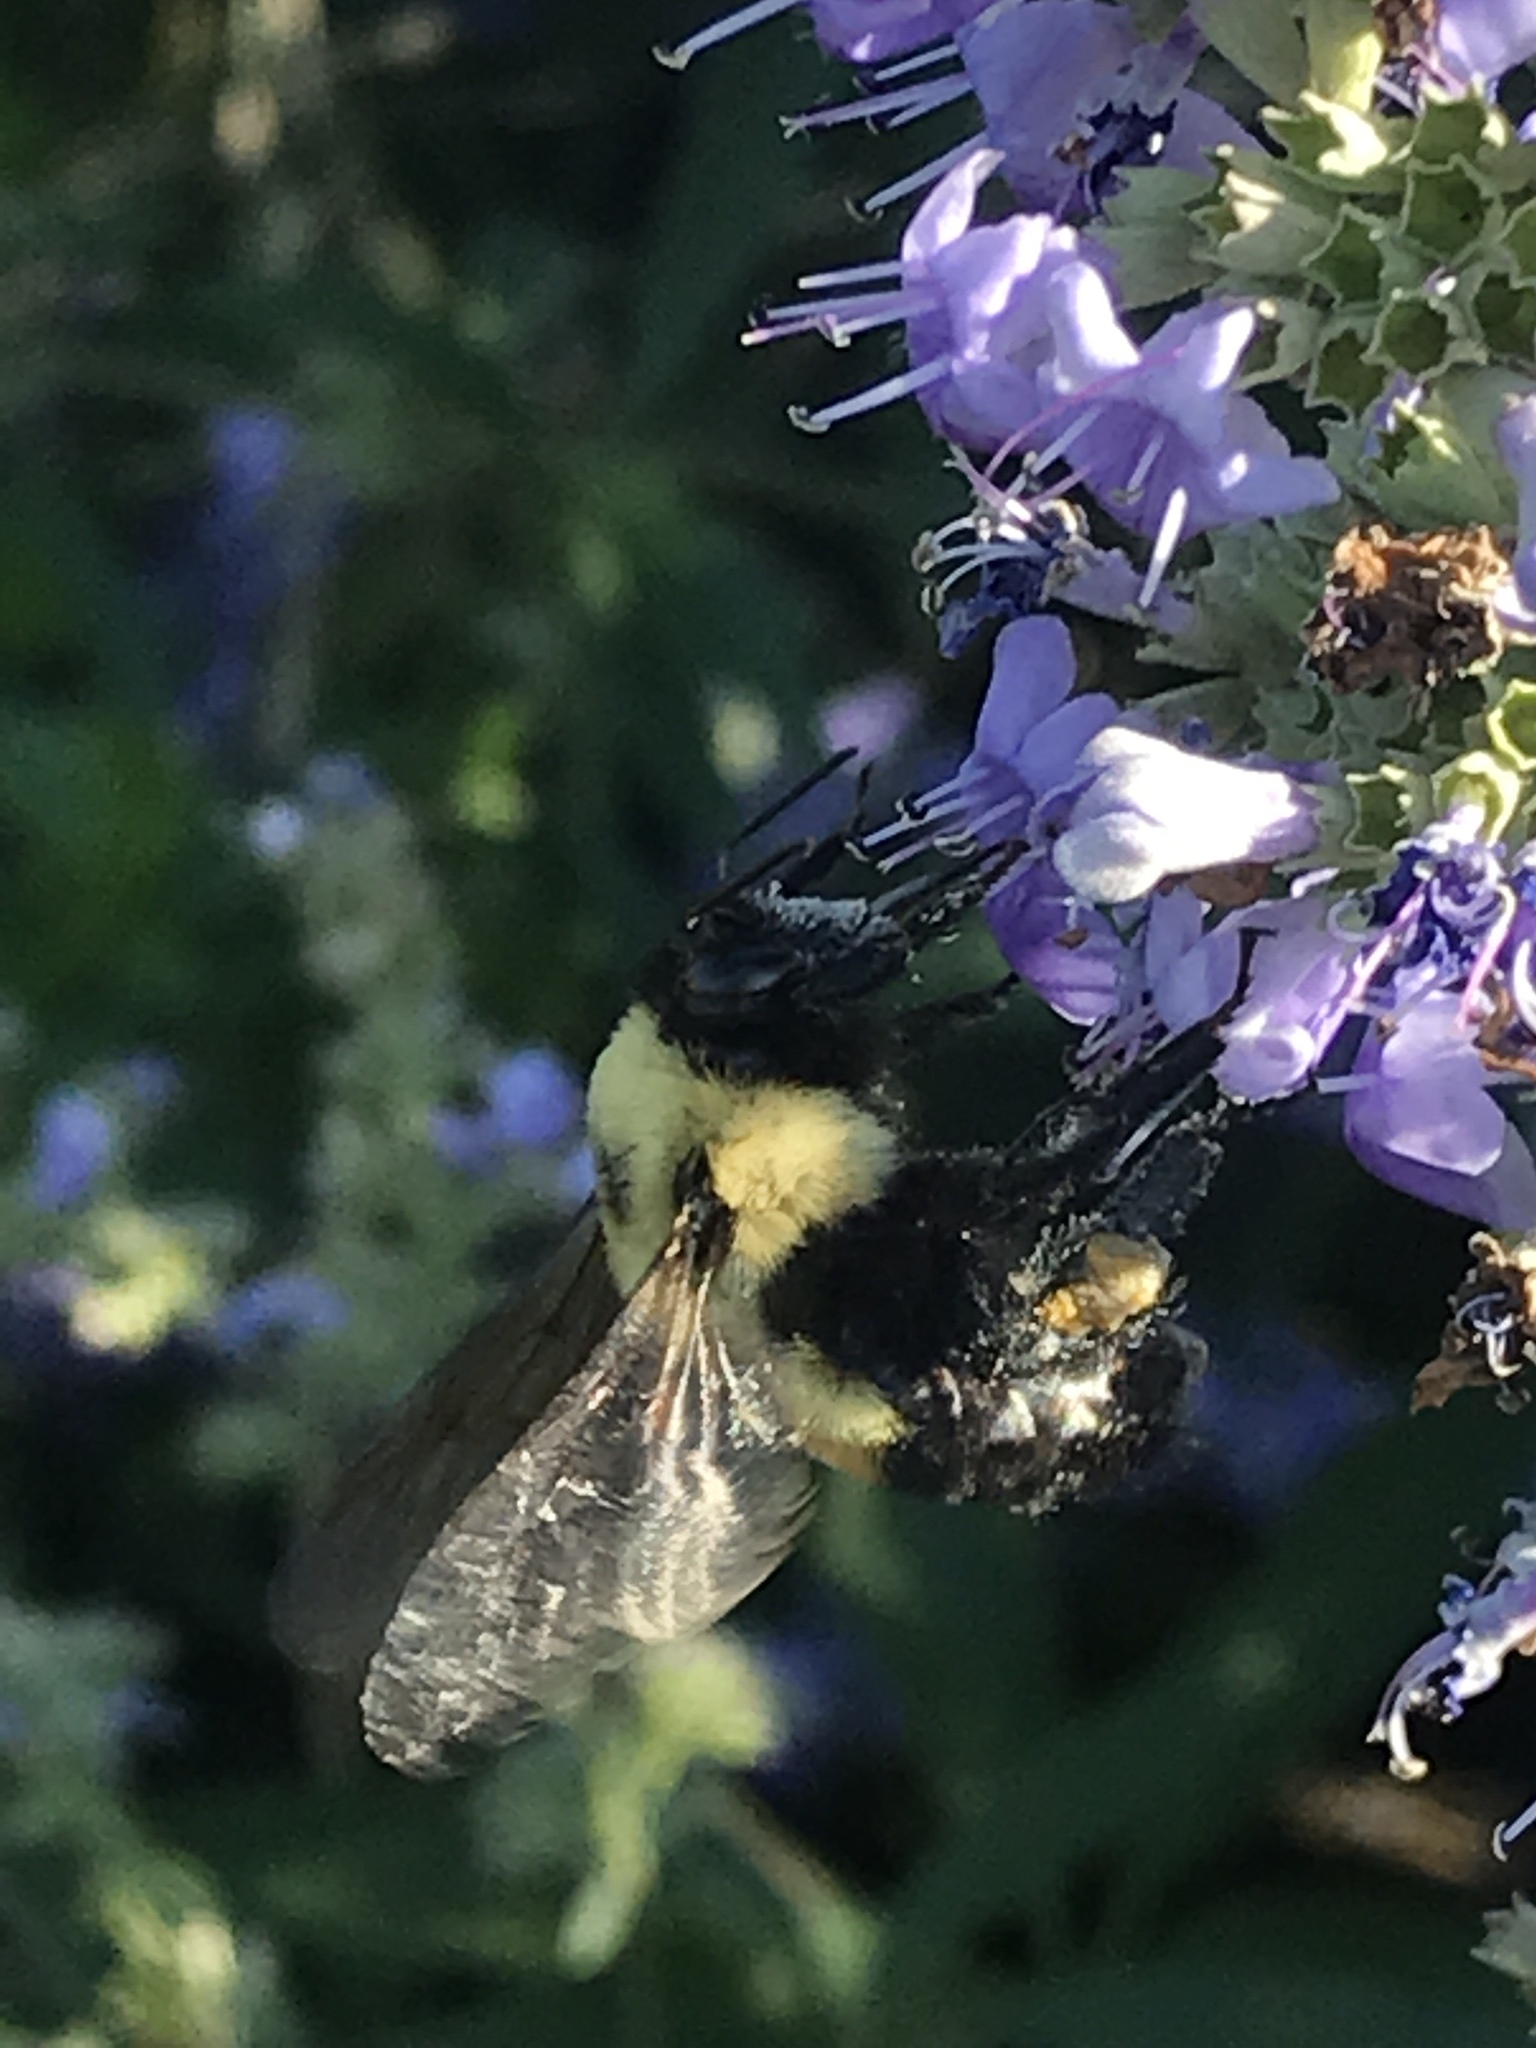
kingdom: Animalia
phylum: Arthropoda
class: Insecta
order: Hymenoptera
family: Apidae
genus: Bombus
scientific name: Bombus griseocollis
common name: Brown-belted bumble bee
